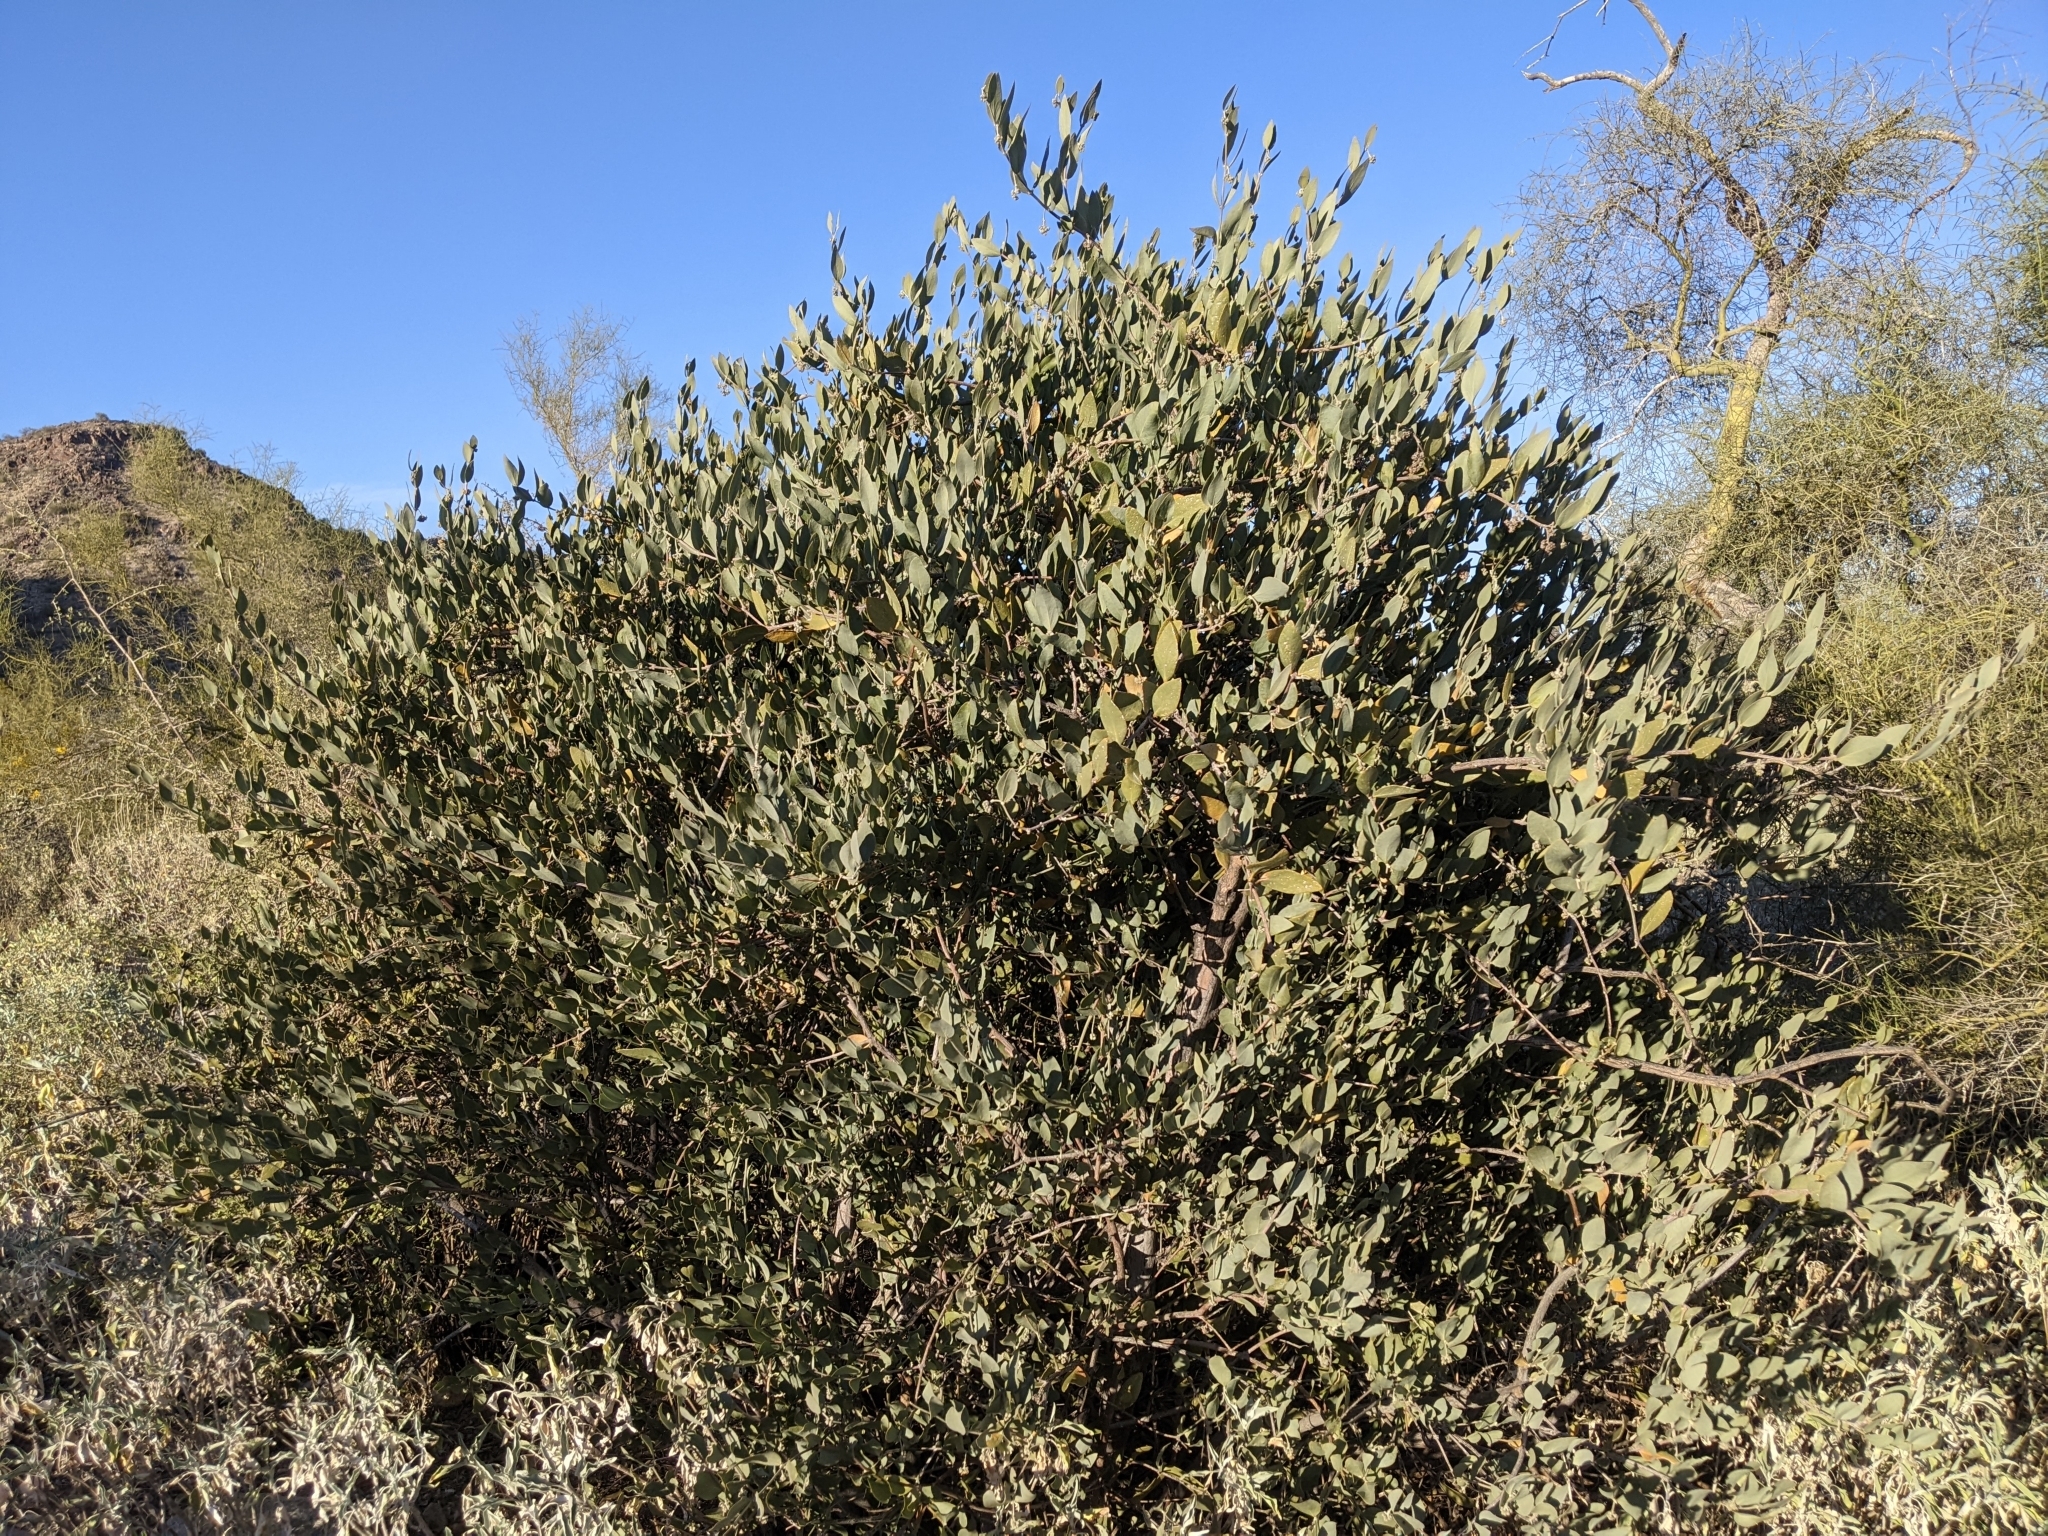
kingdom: Plantae
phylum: Tracheophyta
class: Magnoliopsida
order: Caryophyllales
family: Simmondsiaceae
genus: Simmondsia
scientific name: Simmondsia chinensis
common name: Jojoba
